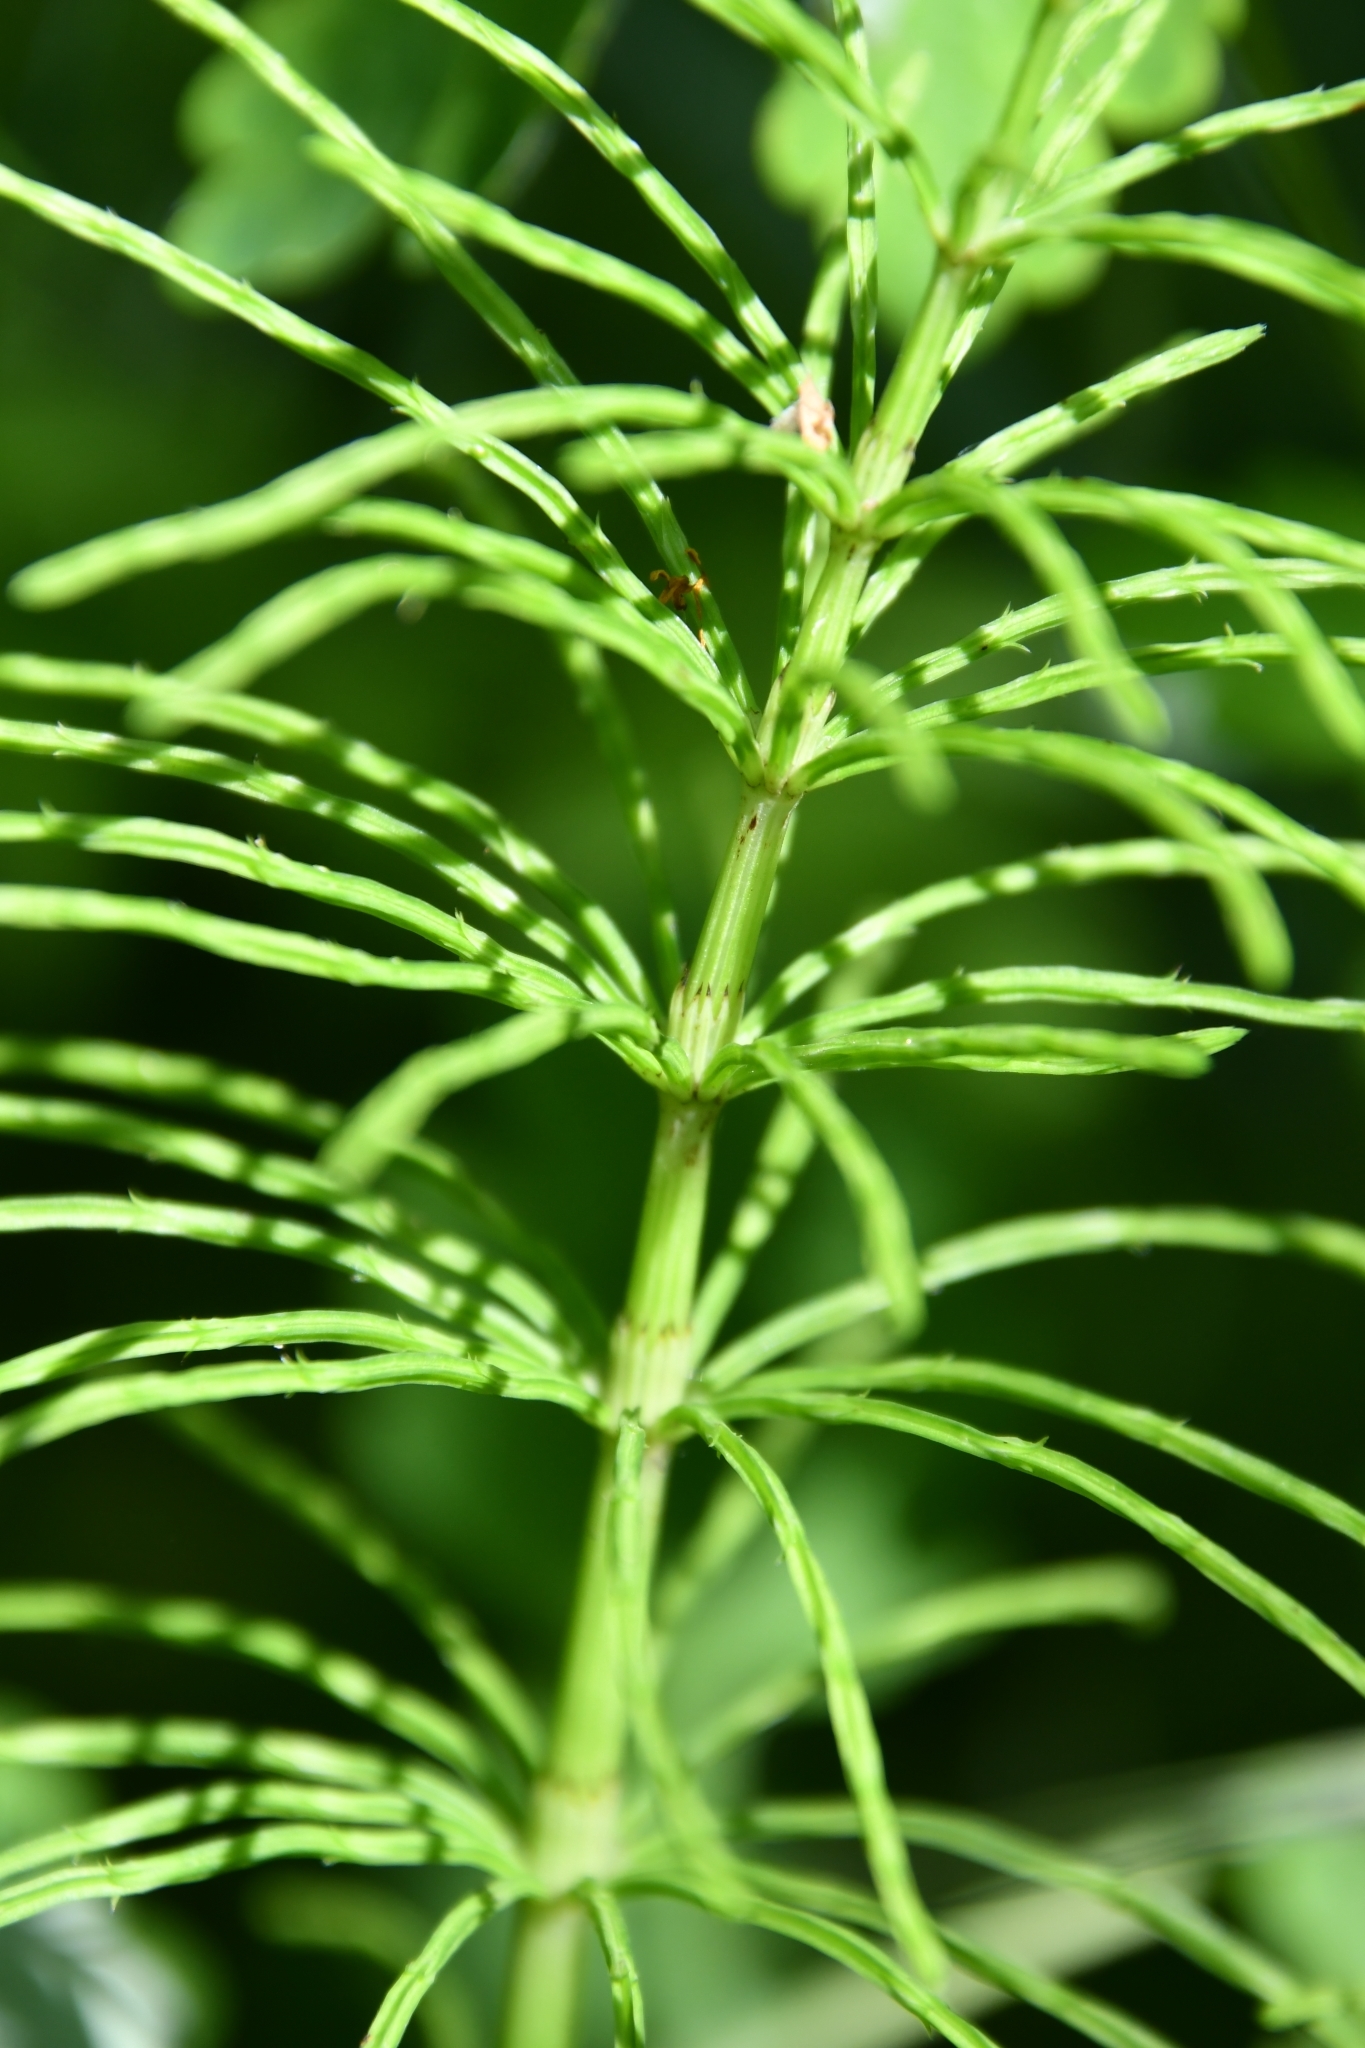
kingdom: Plantae
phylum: Tracheophyta
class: Polypodiopsida
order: Equisetales
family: Equisetaceae
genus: Equisetum
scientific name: Equisetum arvense
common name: Field horsetail
